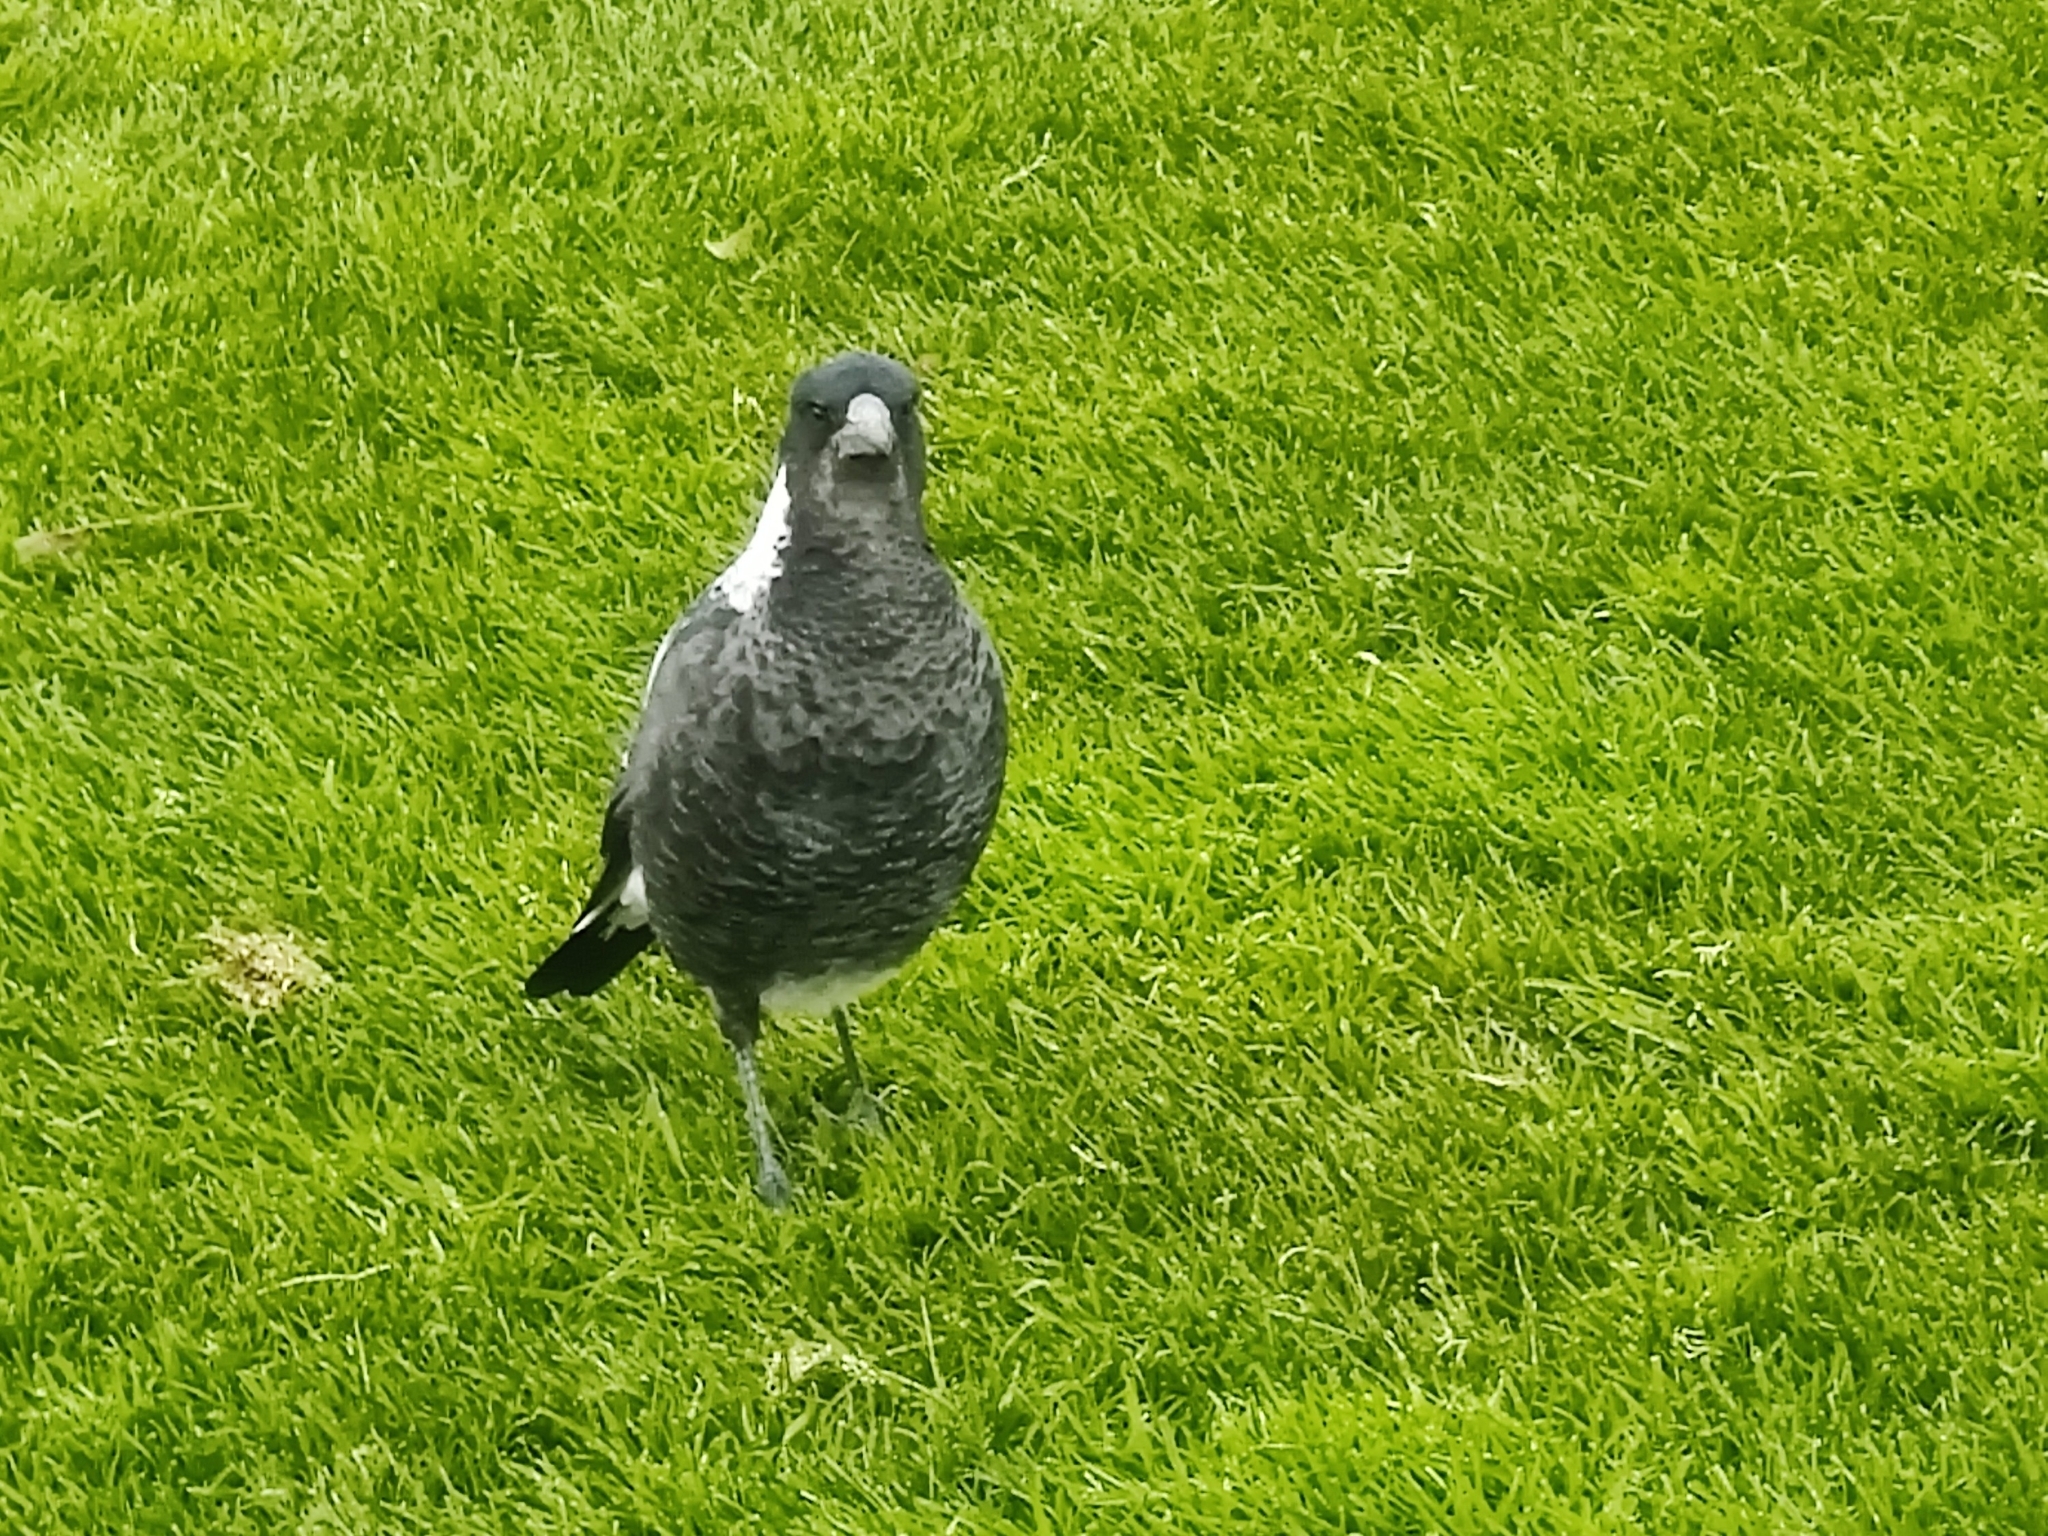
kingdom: Animalia
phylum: Chordata
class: Aves
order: Passeriformes
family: Cracticidae
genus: Gymnorhina
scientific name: Gymnorhina tibicen
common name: Australian magpie
